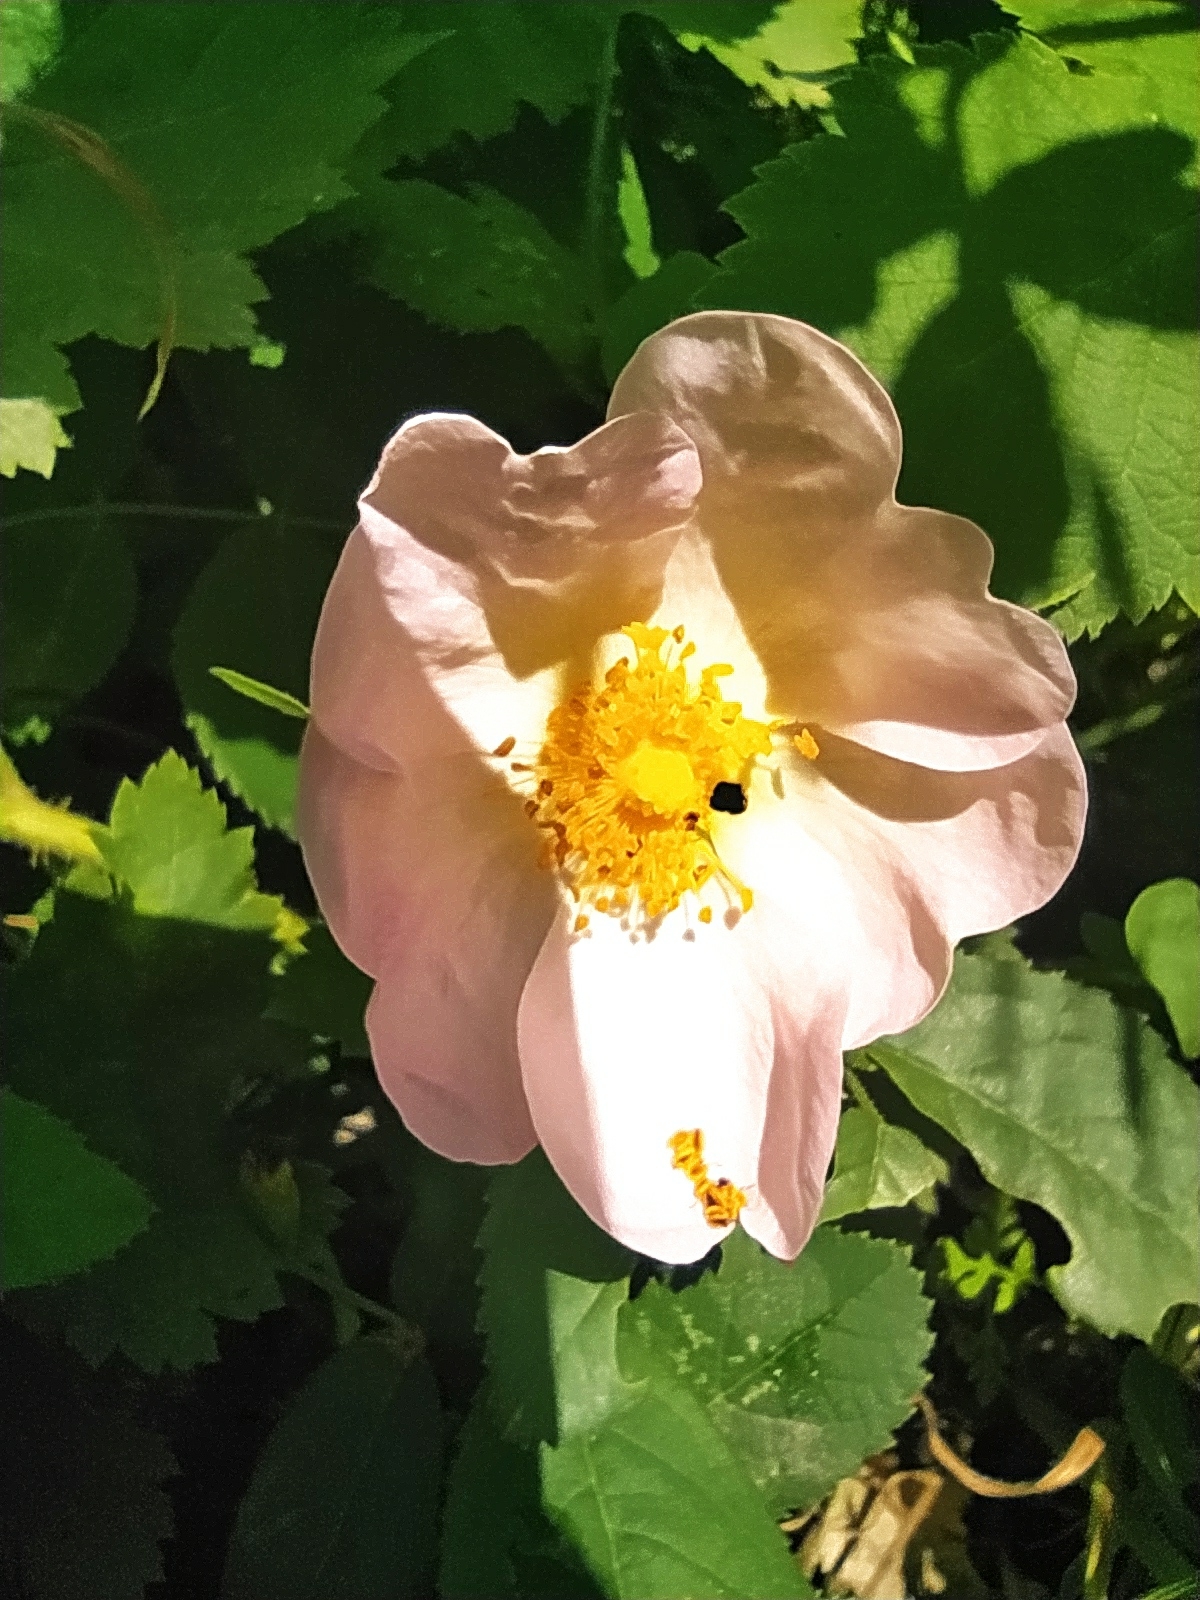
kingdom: Plantae
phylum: Tracheophyta
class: Magnoliopsida
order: Rosales
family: Rosaceae
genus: Rosa
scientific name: Rosa
